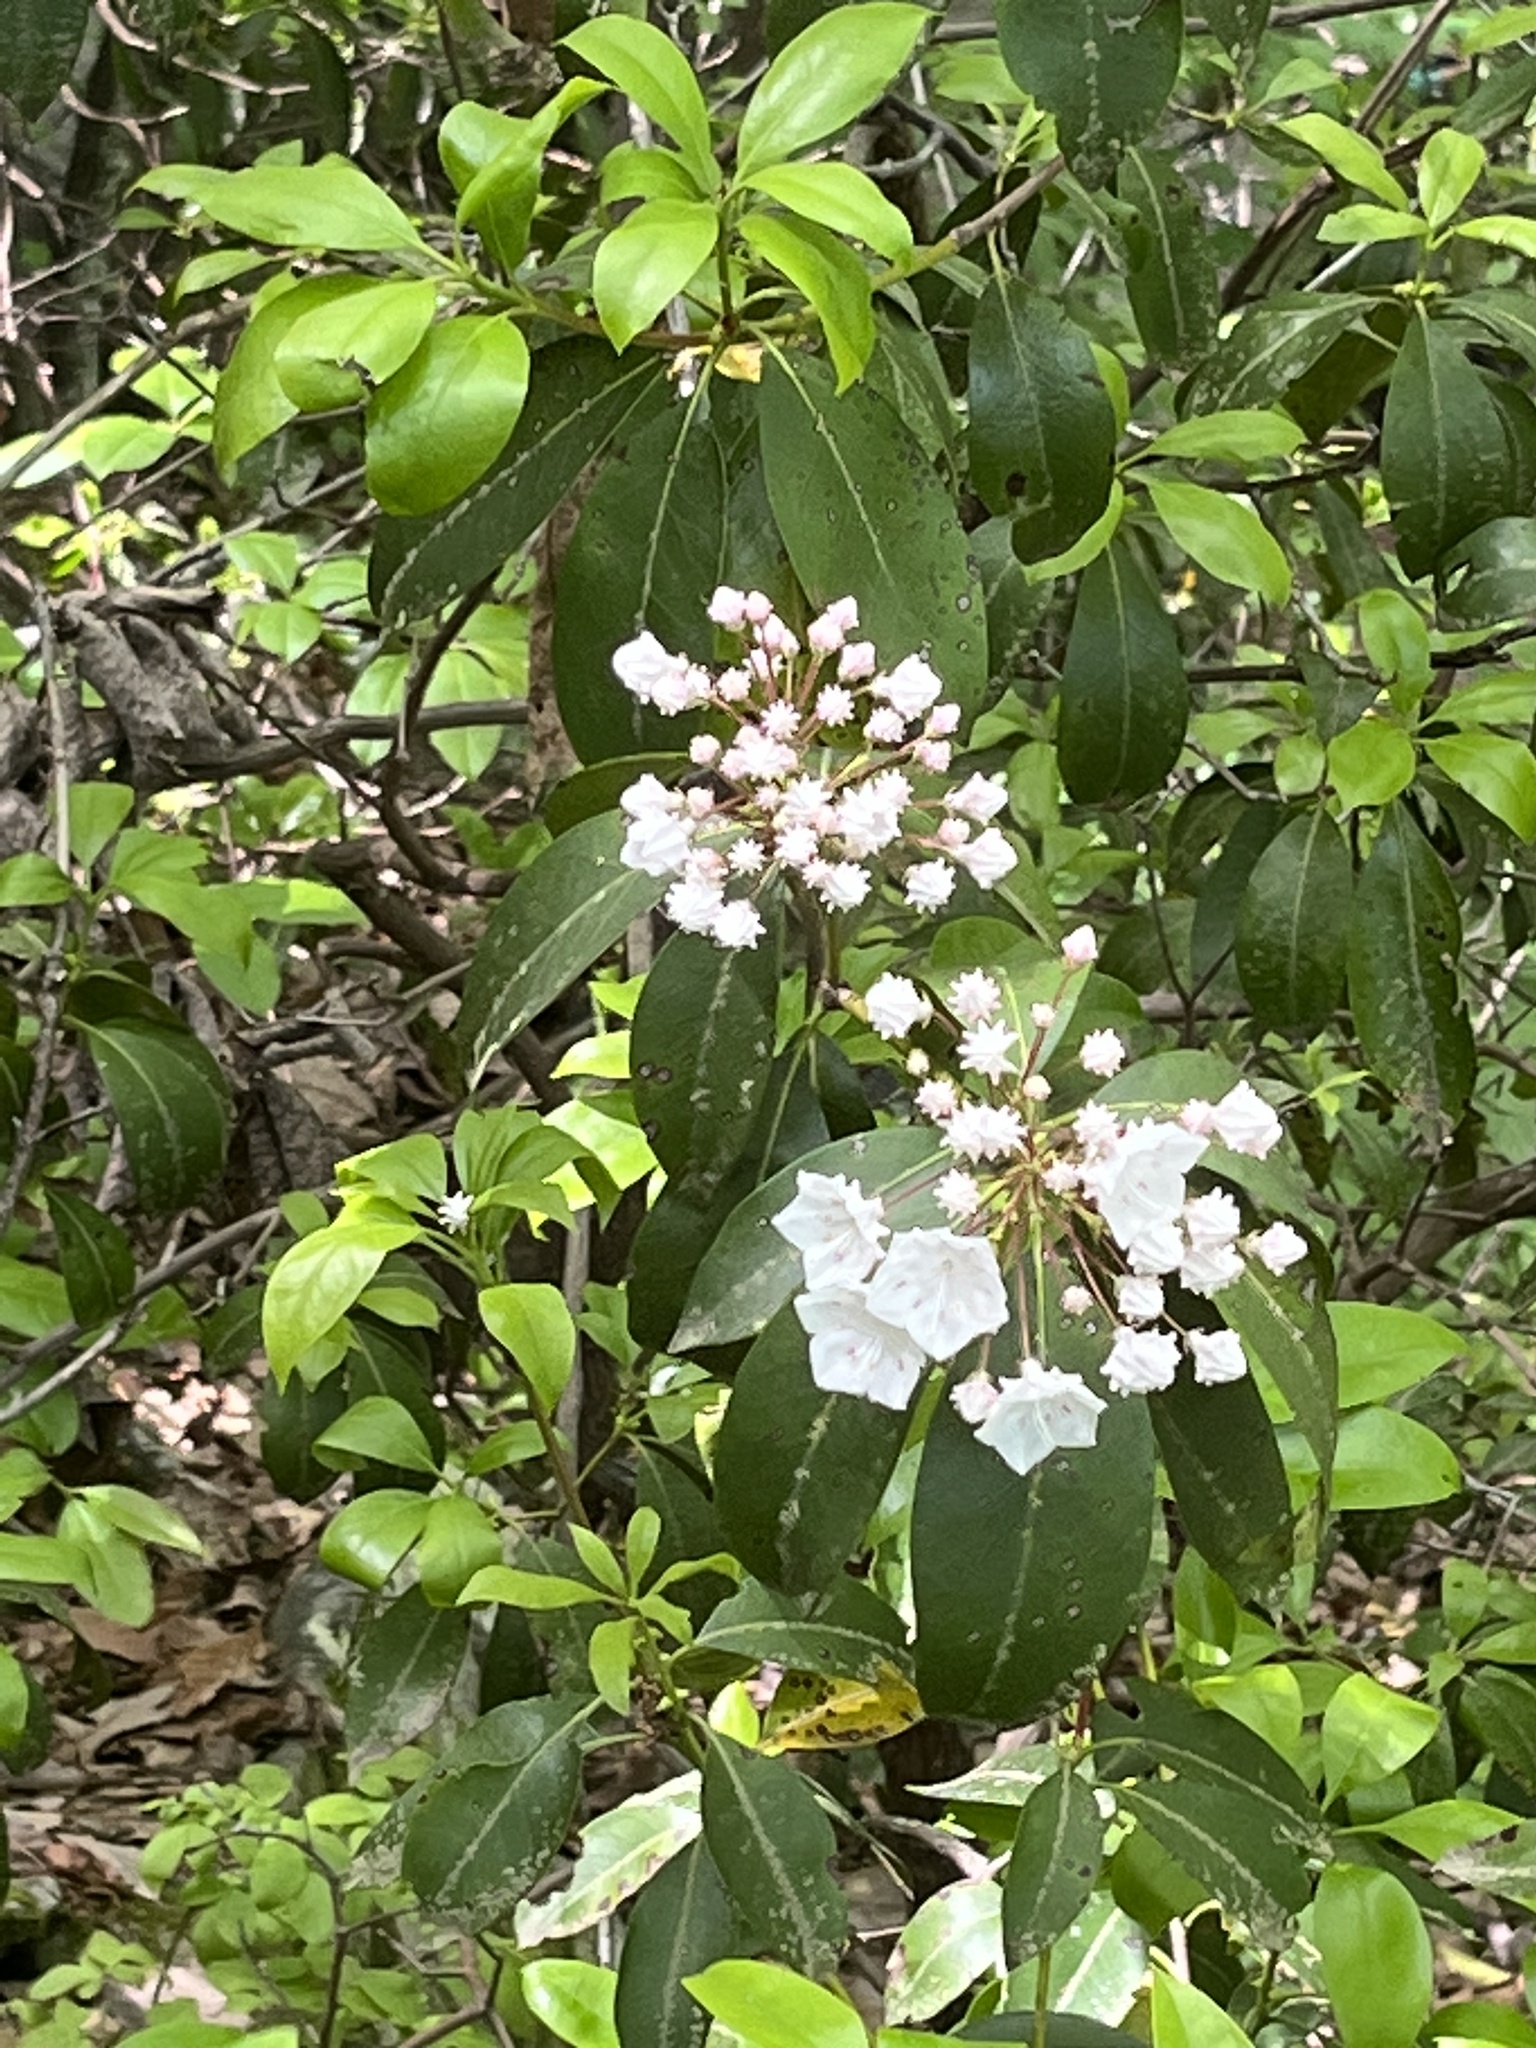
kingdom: Plantae
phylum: Tracheophyta
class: Magnoliopsida
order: Ericales
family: Ericaceae
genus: Kalmia
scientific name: Kalmia latifolia
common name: Mountain-laurel
